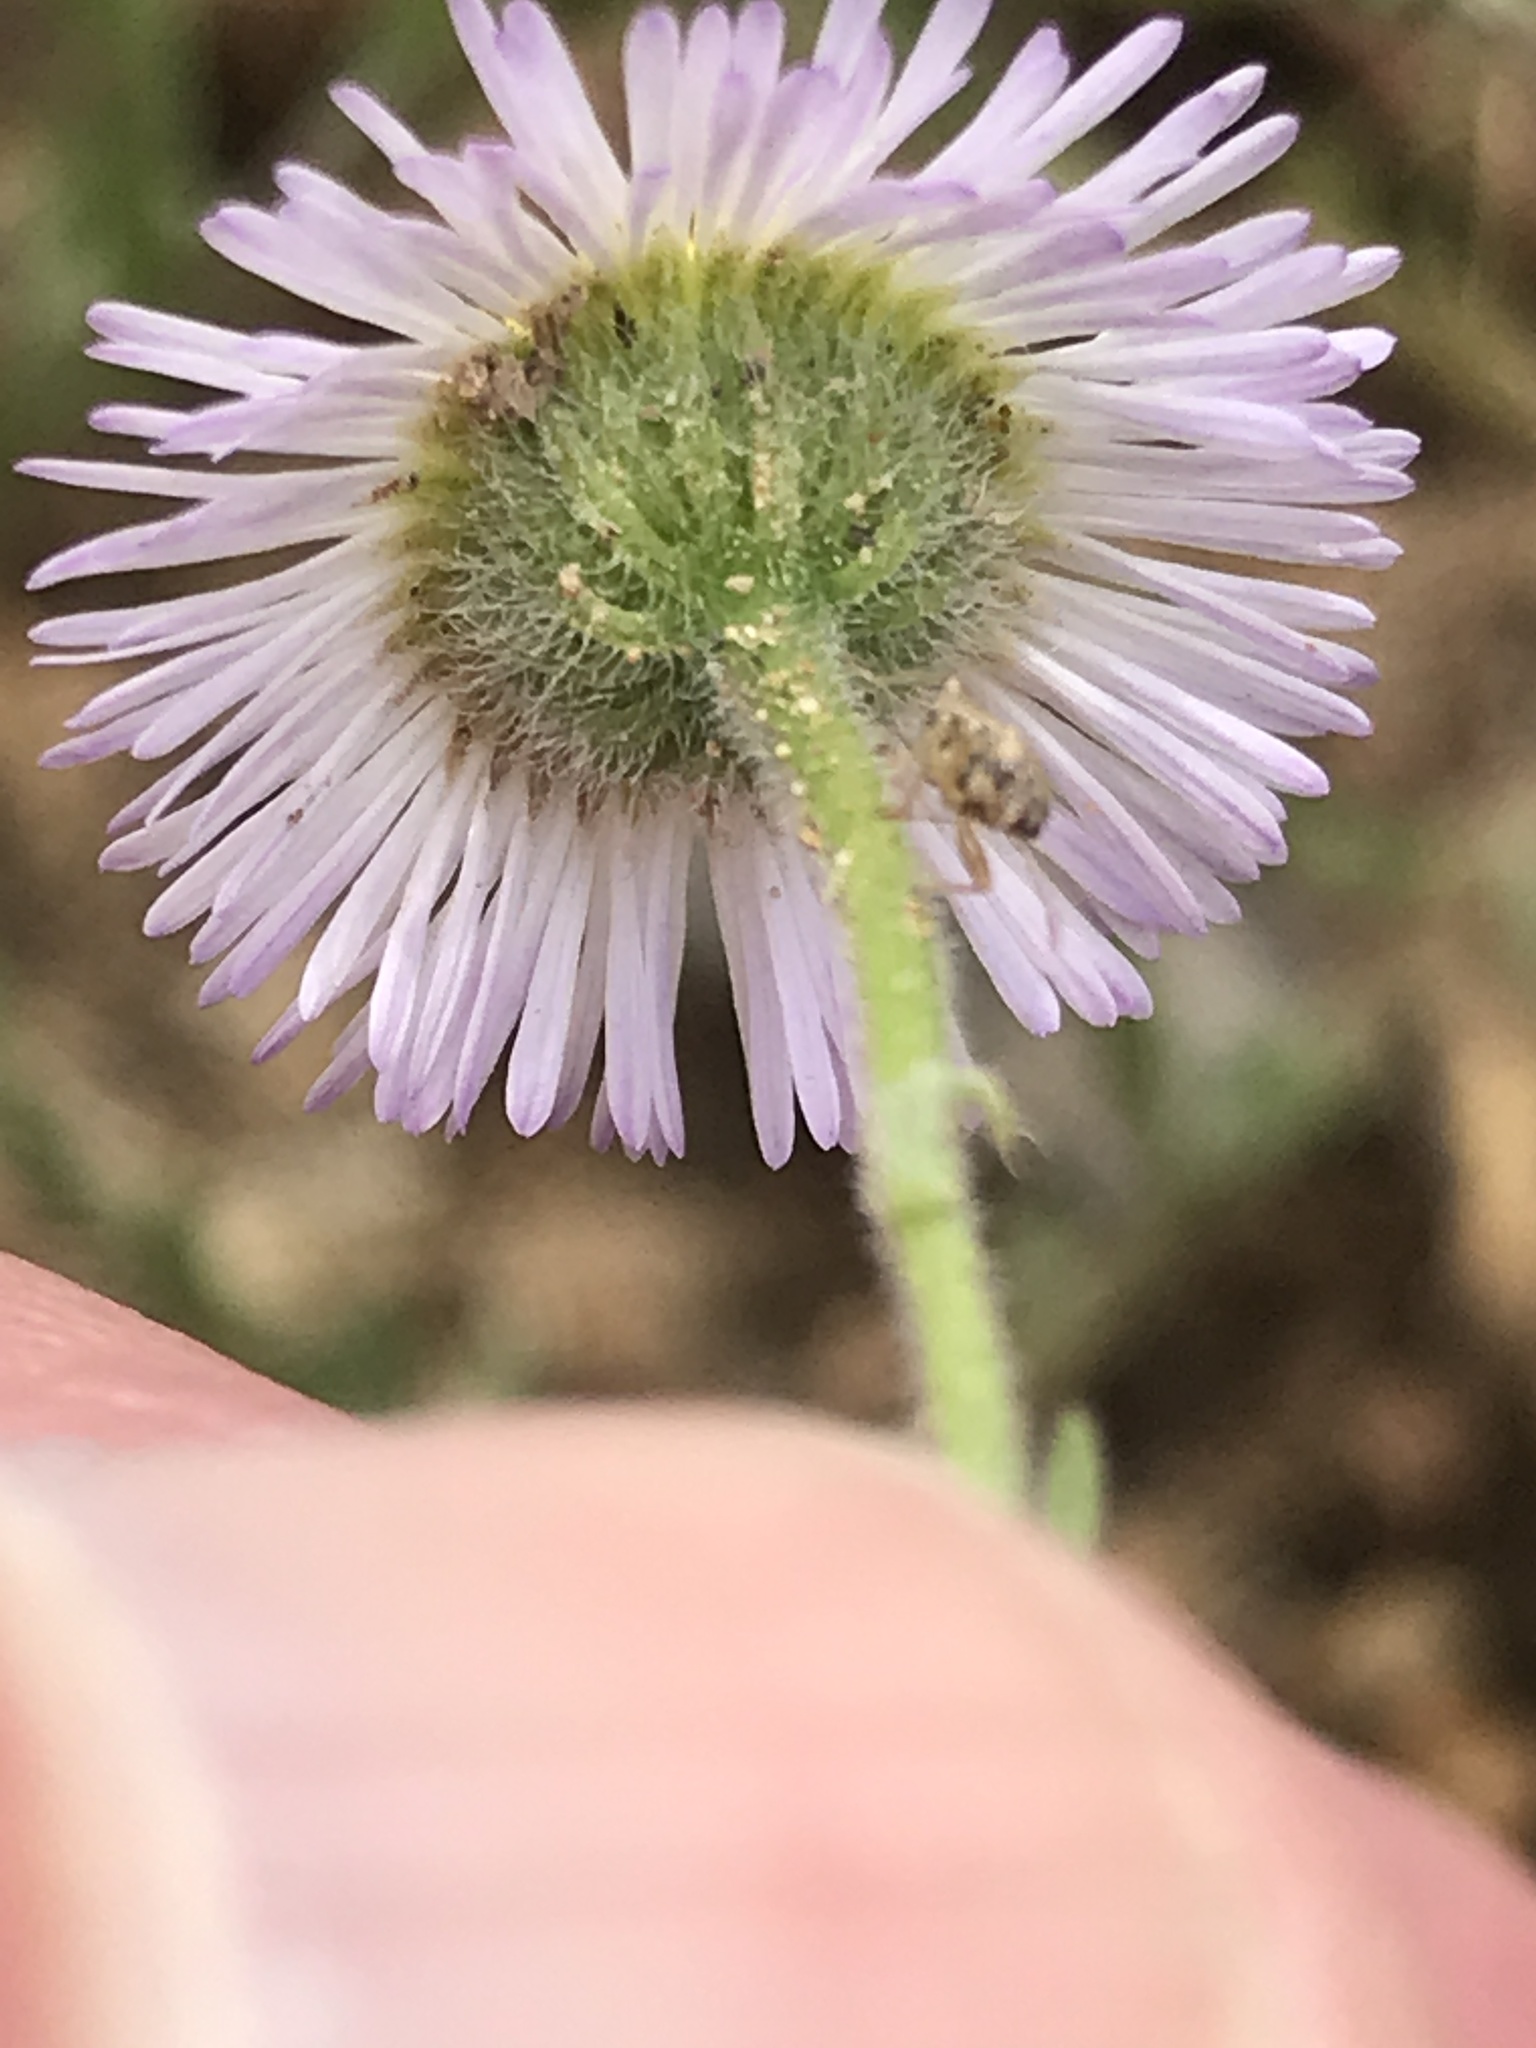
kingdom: Plantae
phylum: Tracheophyta
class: Magnoliopsida
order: Asterales
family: Asteraceae
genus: Erigeron
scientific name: Erigeron divergens
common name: Diffuse fleabane
